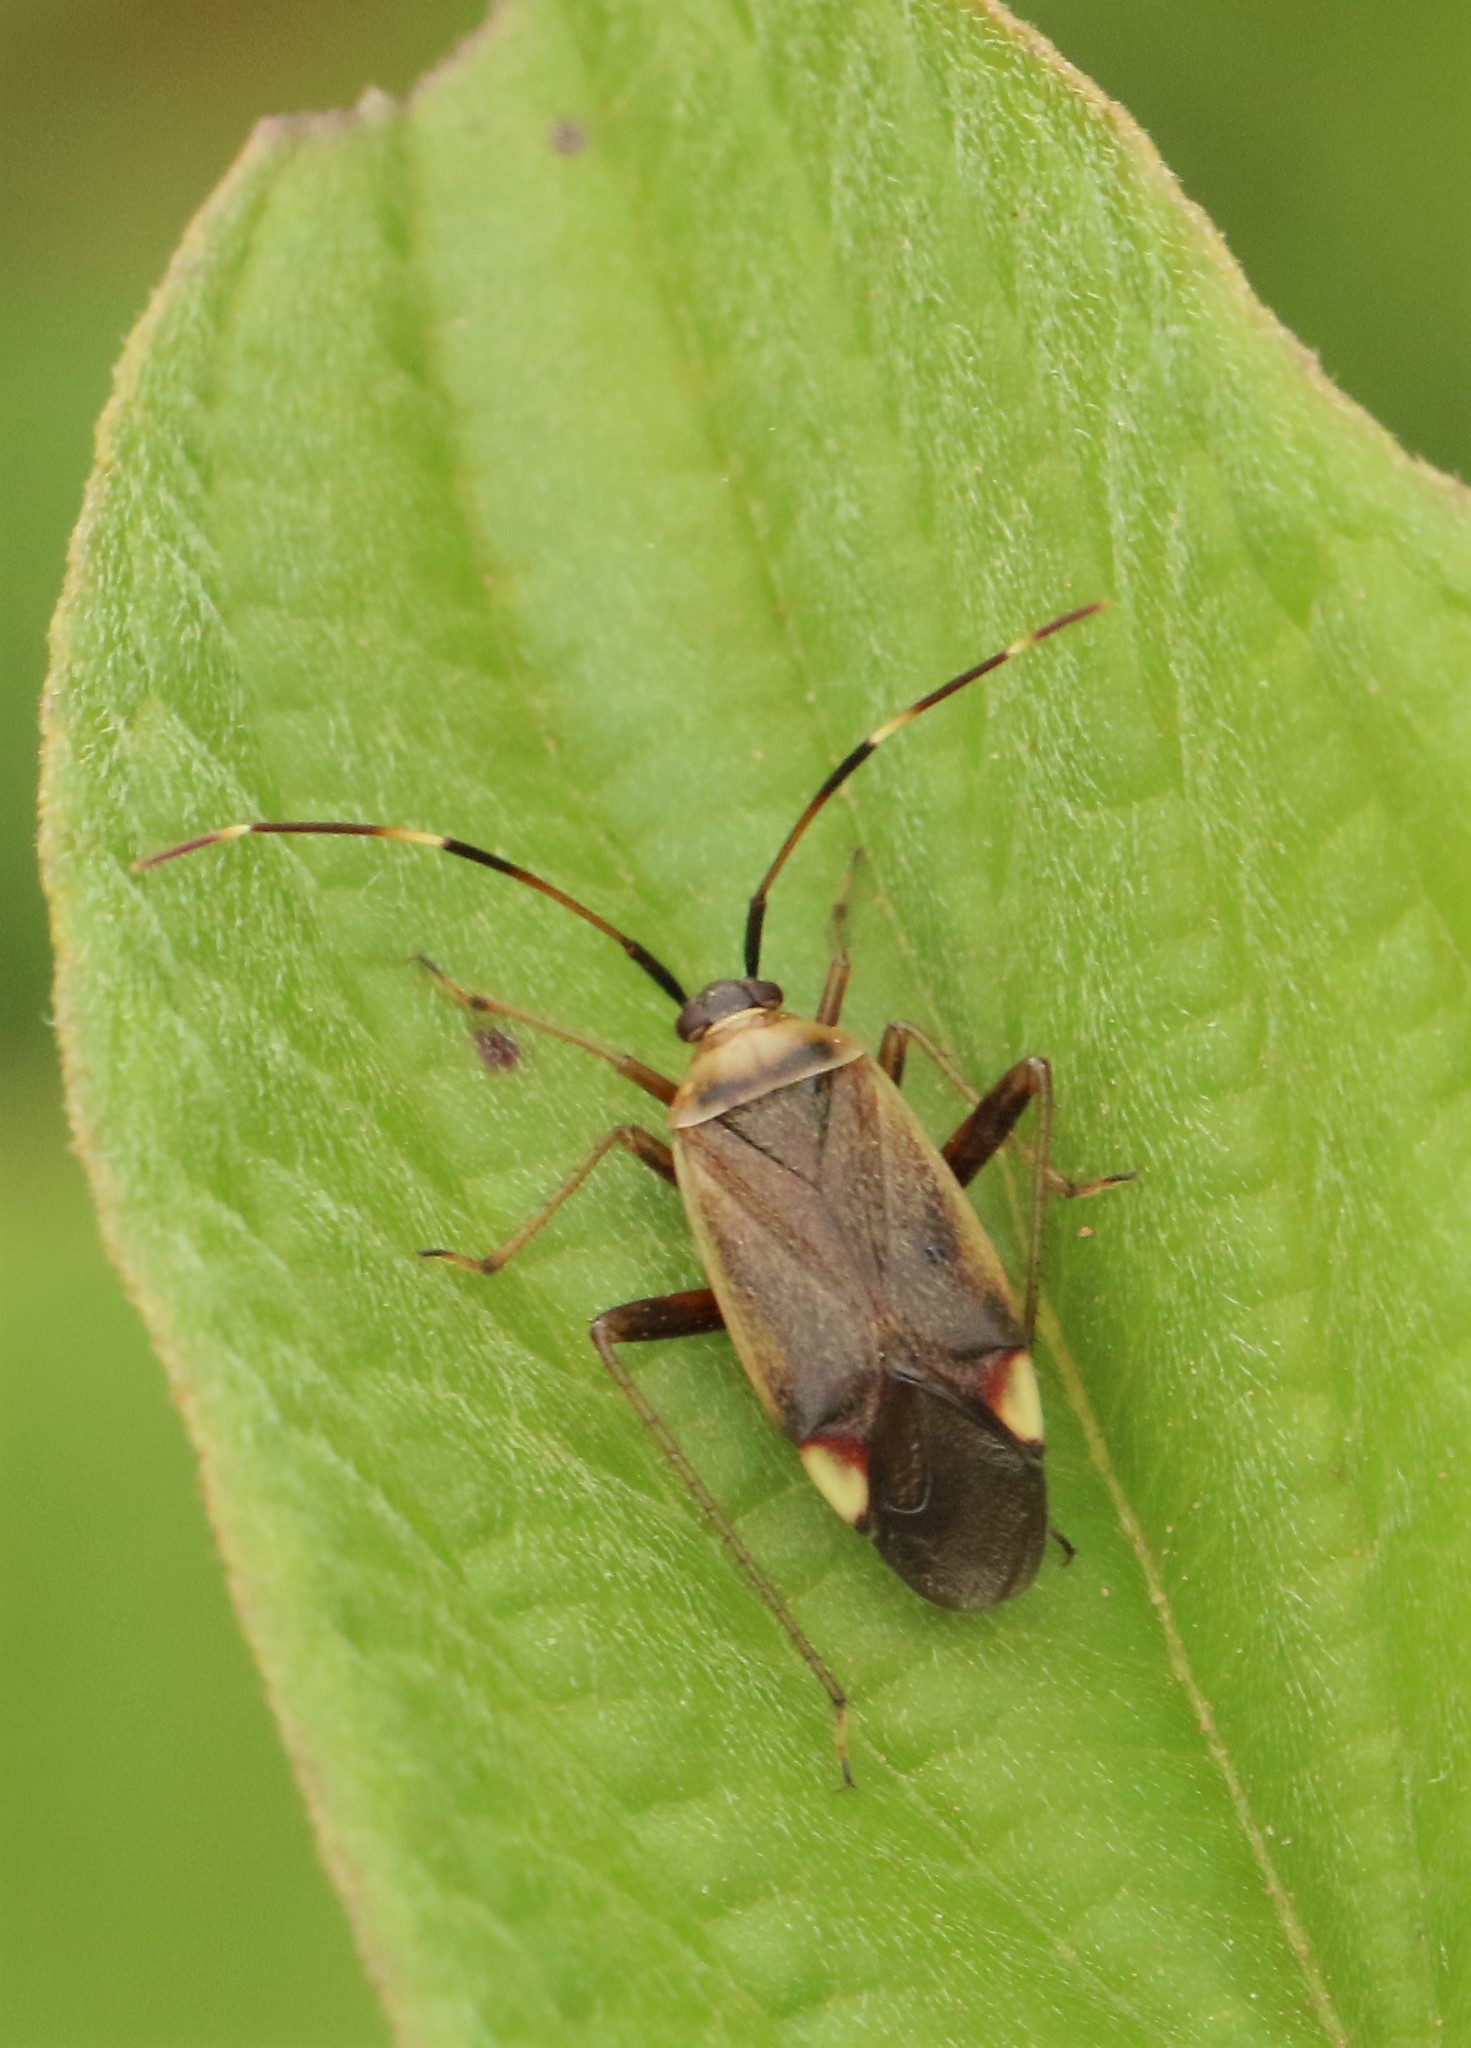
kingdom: Animalia
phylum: Arthropoda
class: Insecta
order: Hemiptera
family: Miridae
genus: Adelphocoris
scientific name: Adelphocoris rapidus
